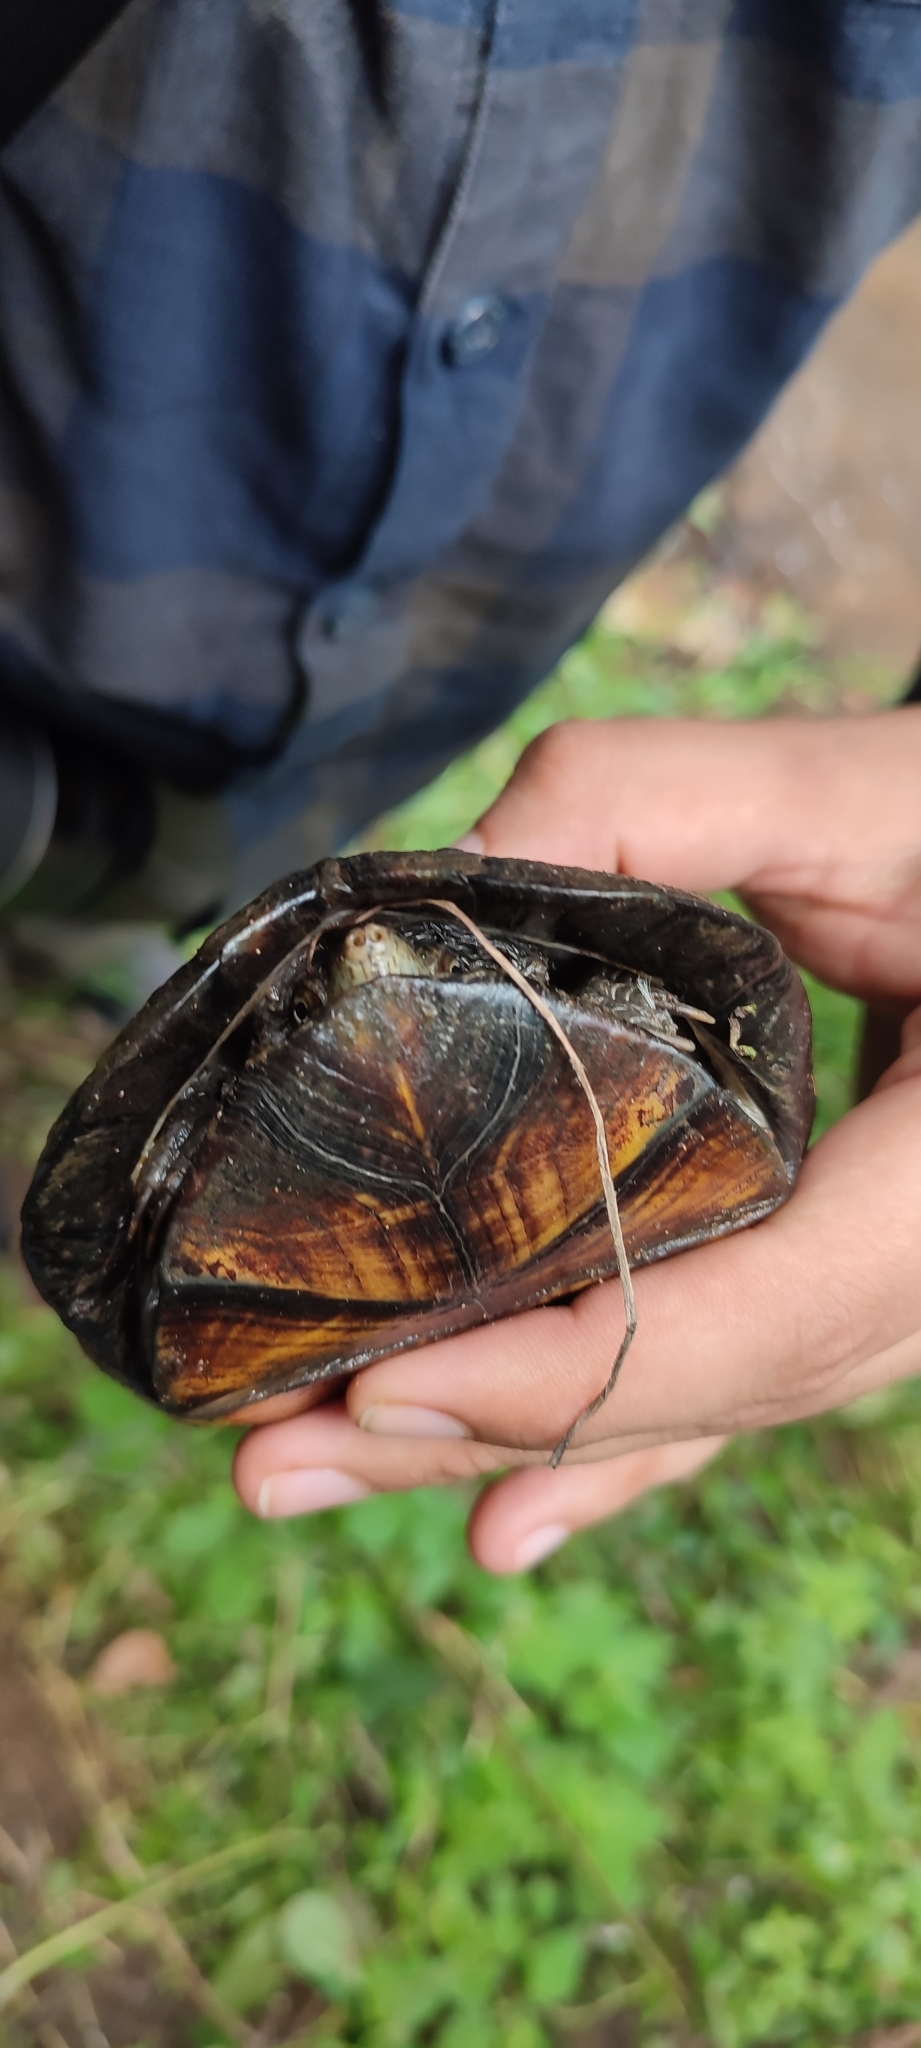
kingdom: Animalia
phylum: Chordata
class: Testudines
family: Kinosternidae
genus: Kinosternon
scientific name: Kinosternon integrum
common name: Mexican mud turtle
